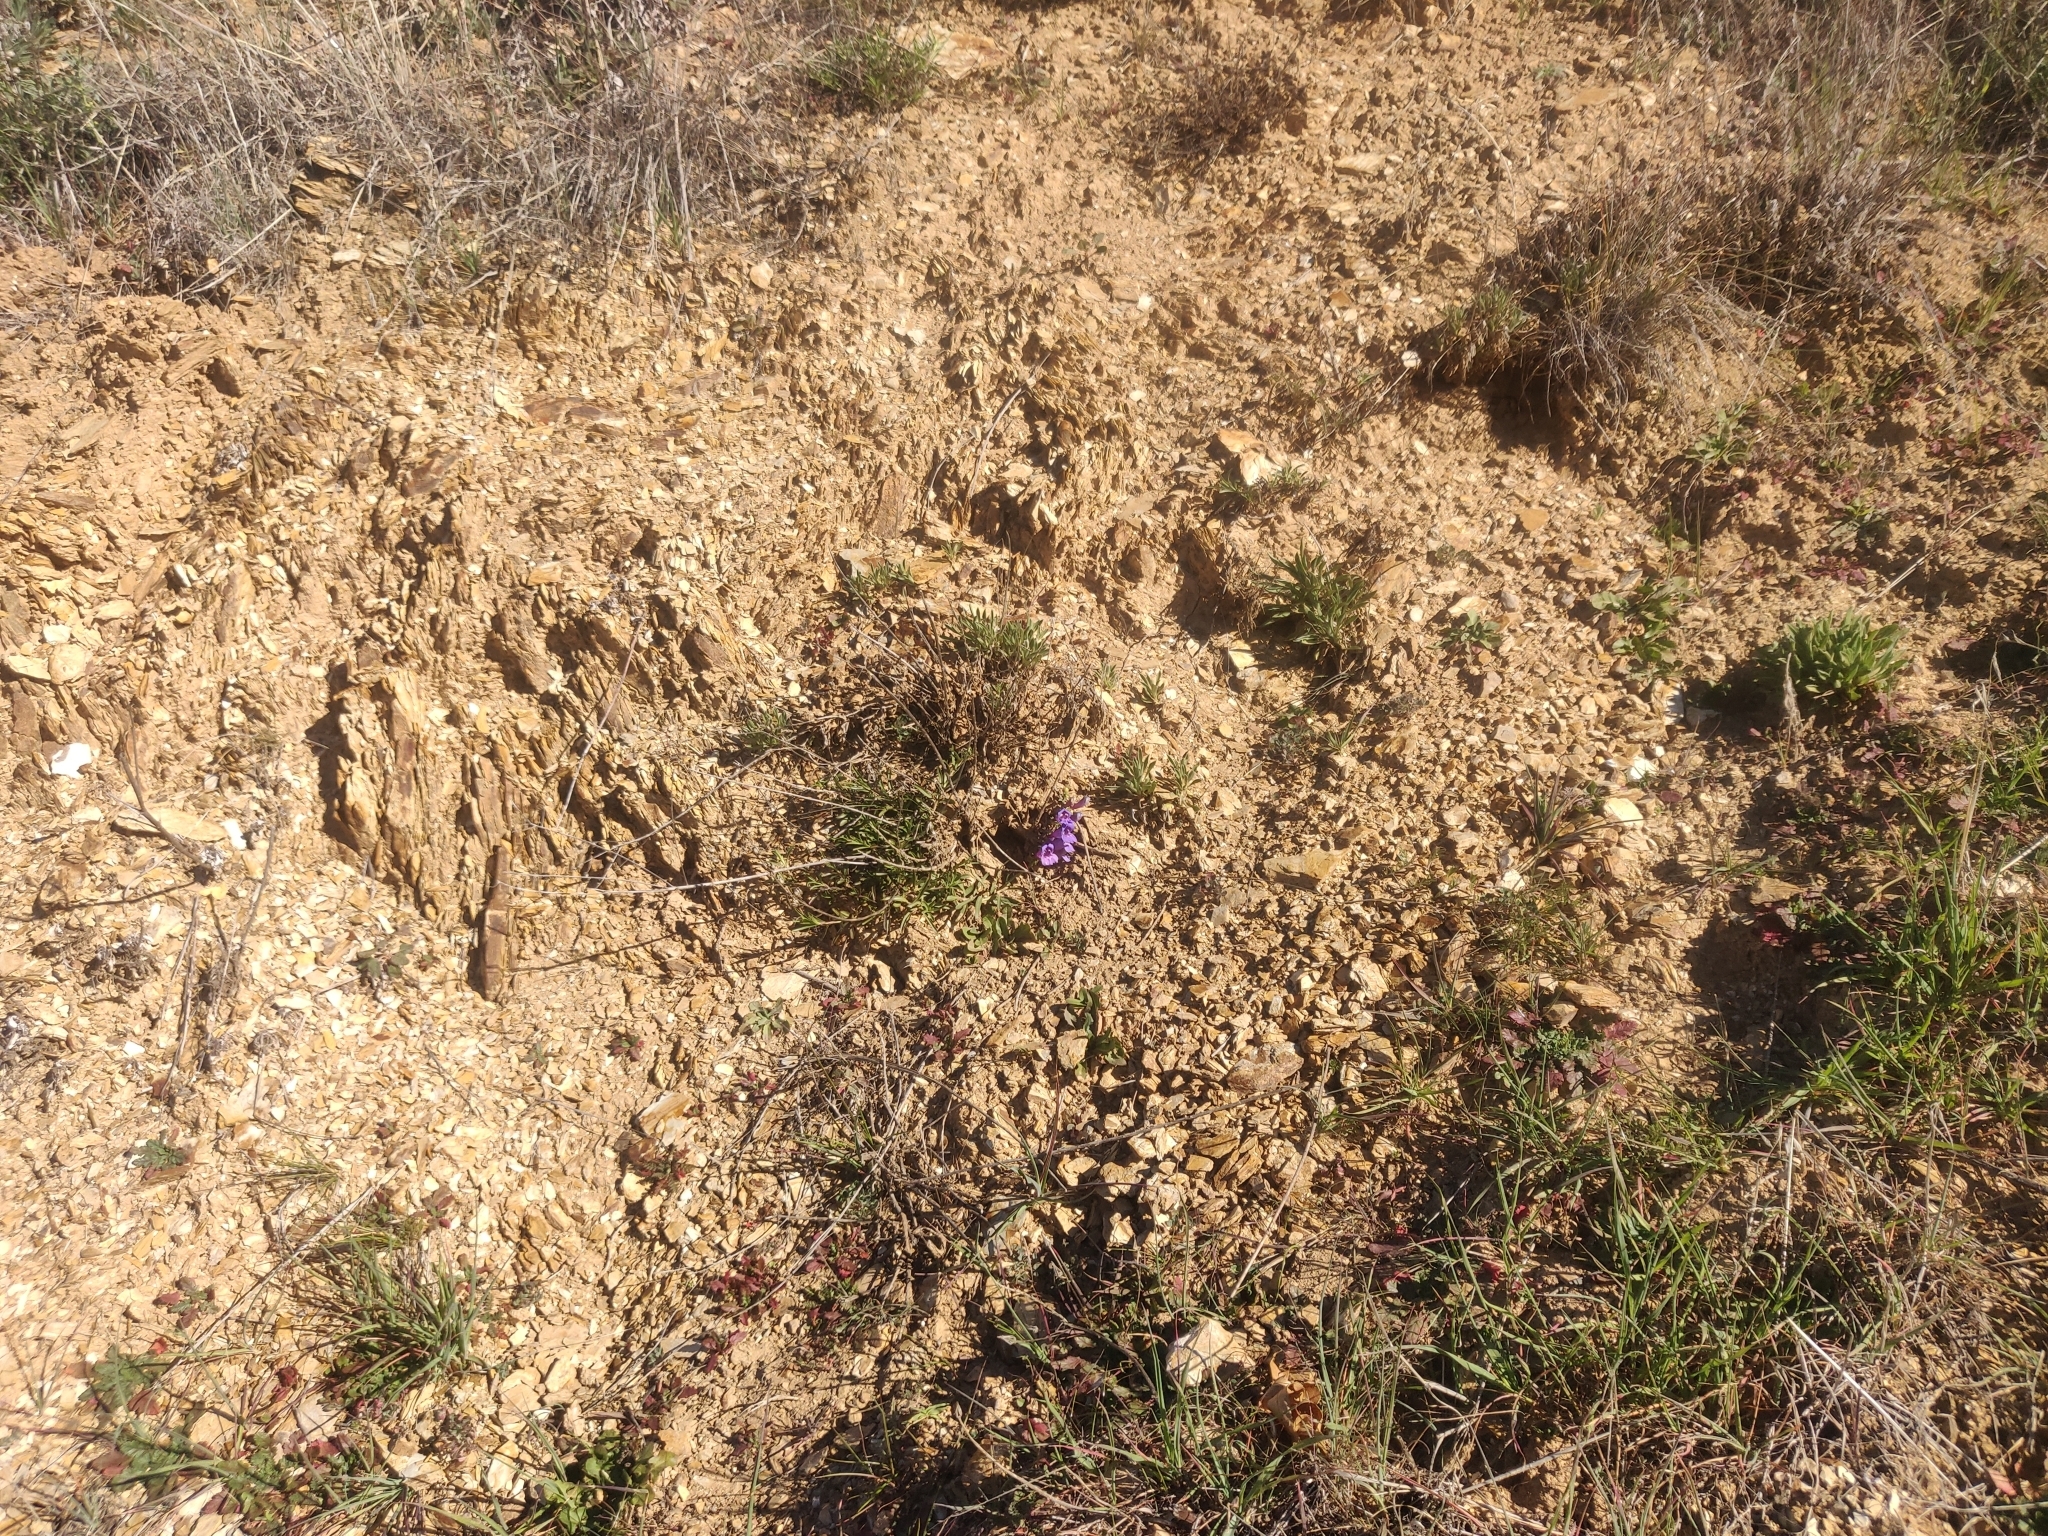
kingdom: Plantae
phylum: Tracheophyta
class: Magnoliopsida
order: Lamiales
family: Plantaginaceae
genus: Penstemon
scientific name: Penstemon heterophyllus
